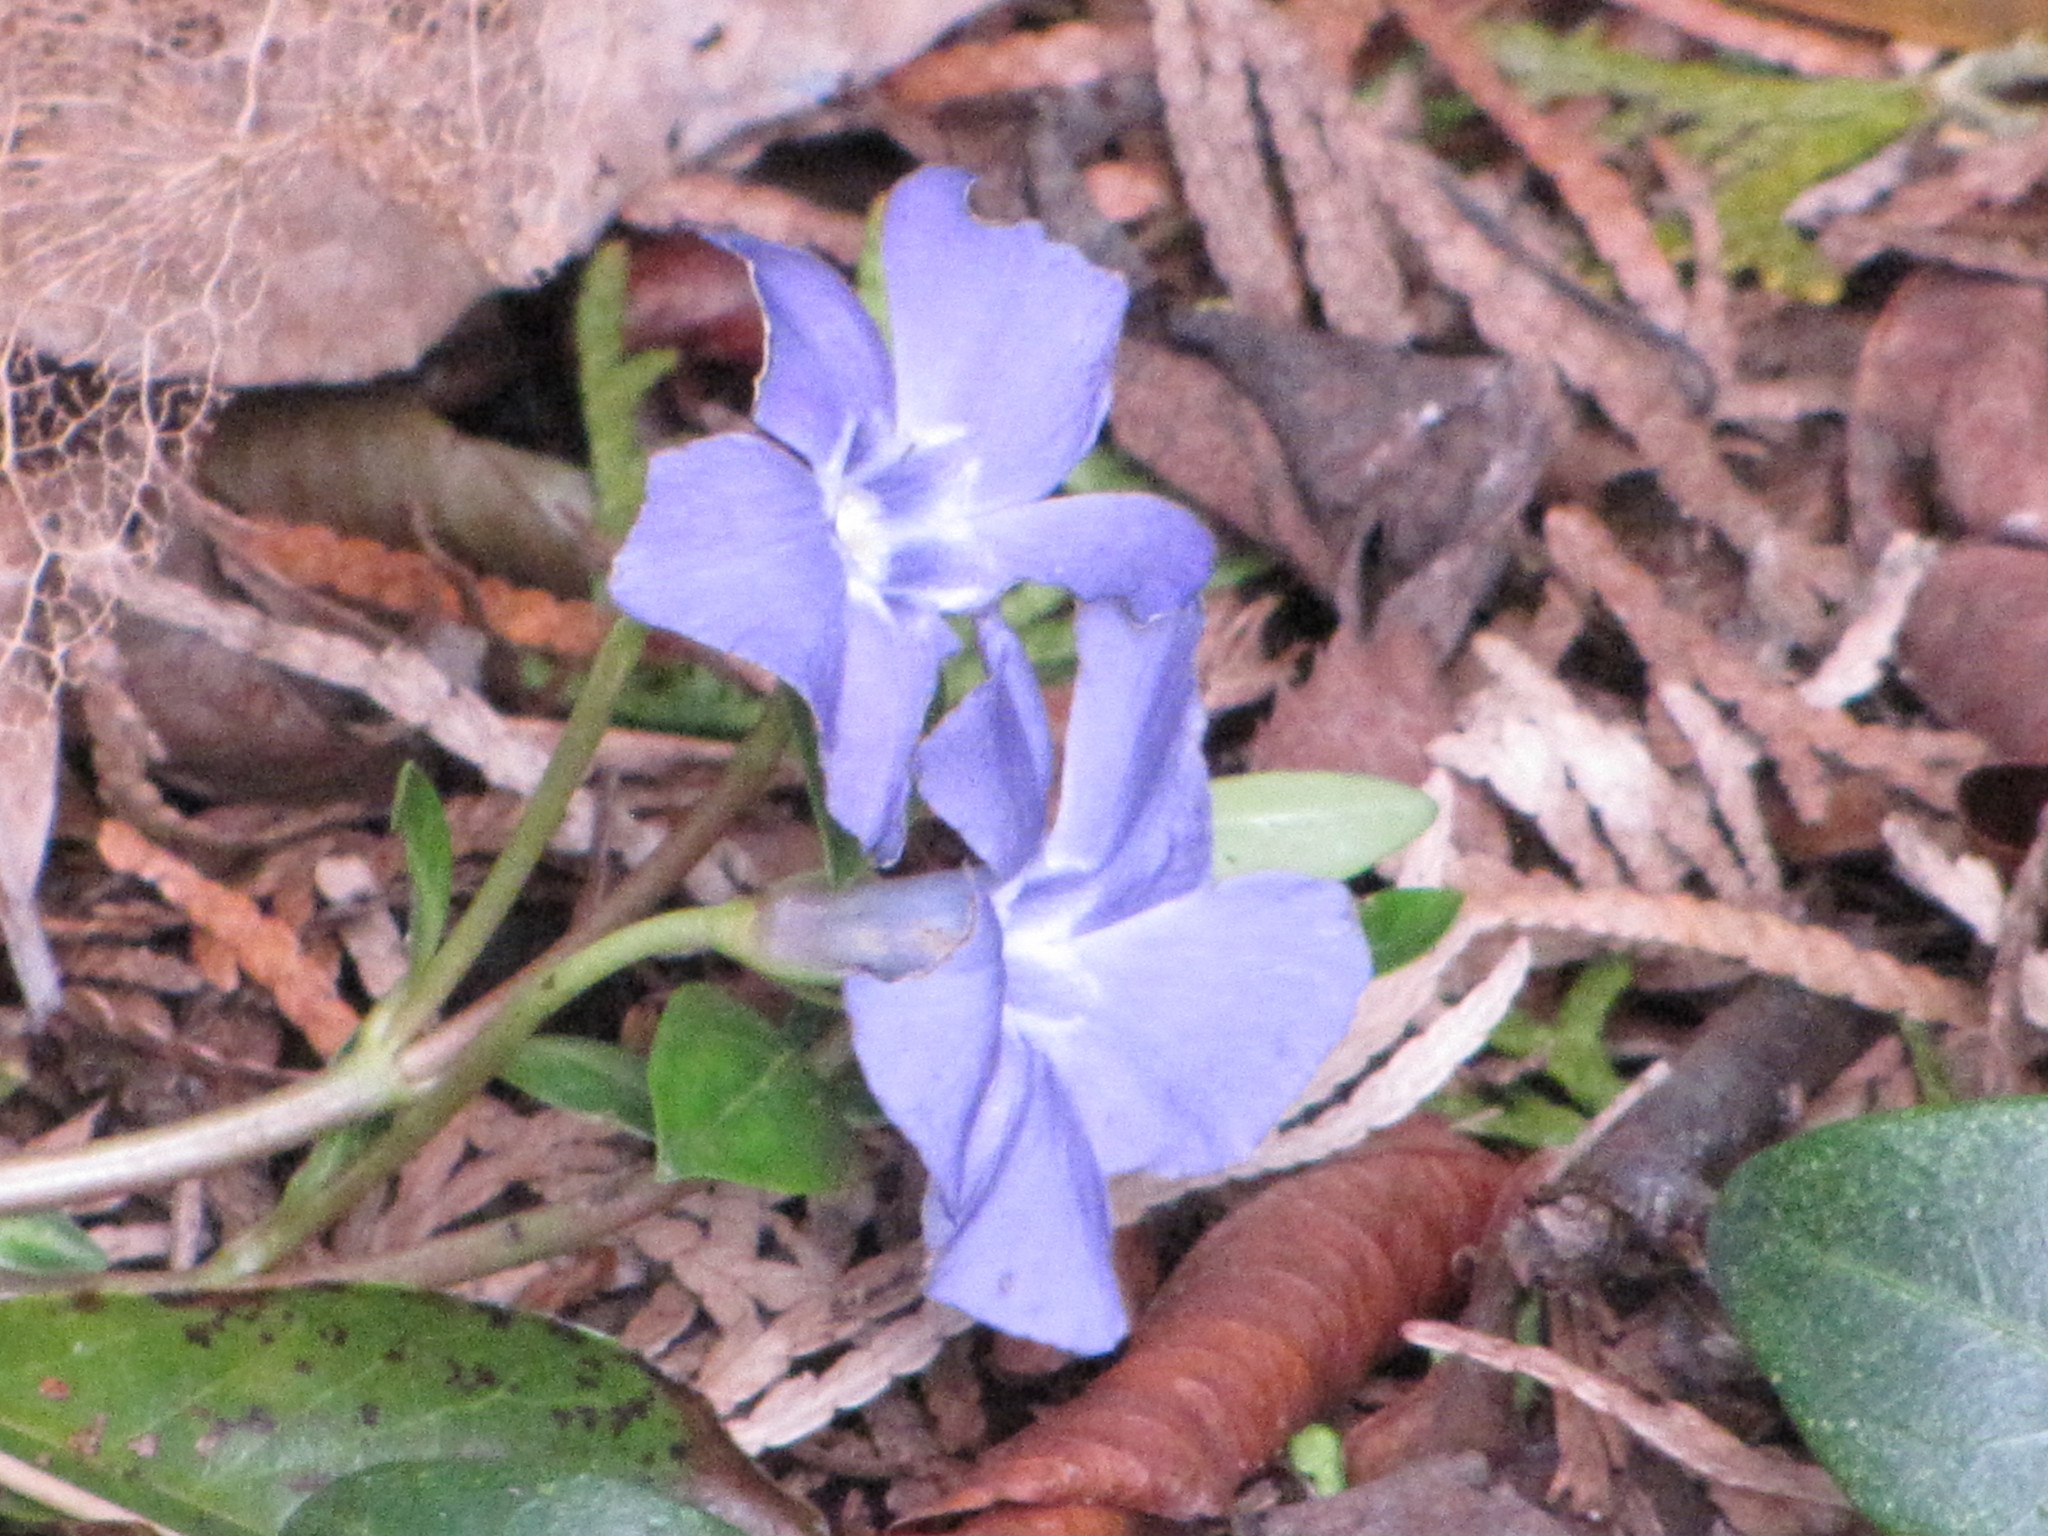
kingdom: Plantae
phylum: Tracheophyta
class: Magnoliopsida
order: Gentianales
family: Apocynaceae
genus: Vinca
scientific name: Vinca minor
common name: Lesser periwinkle
